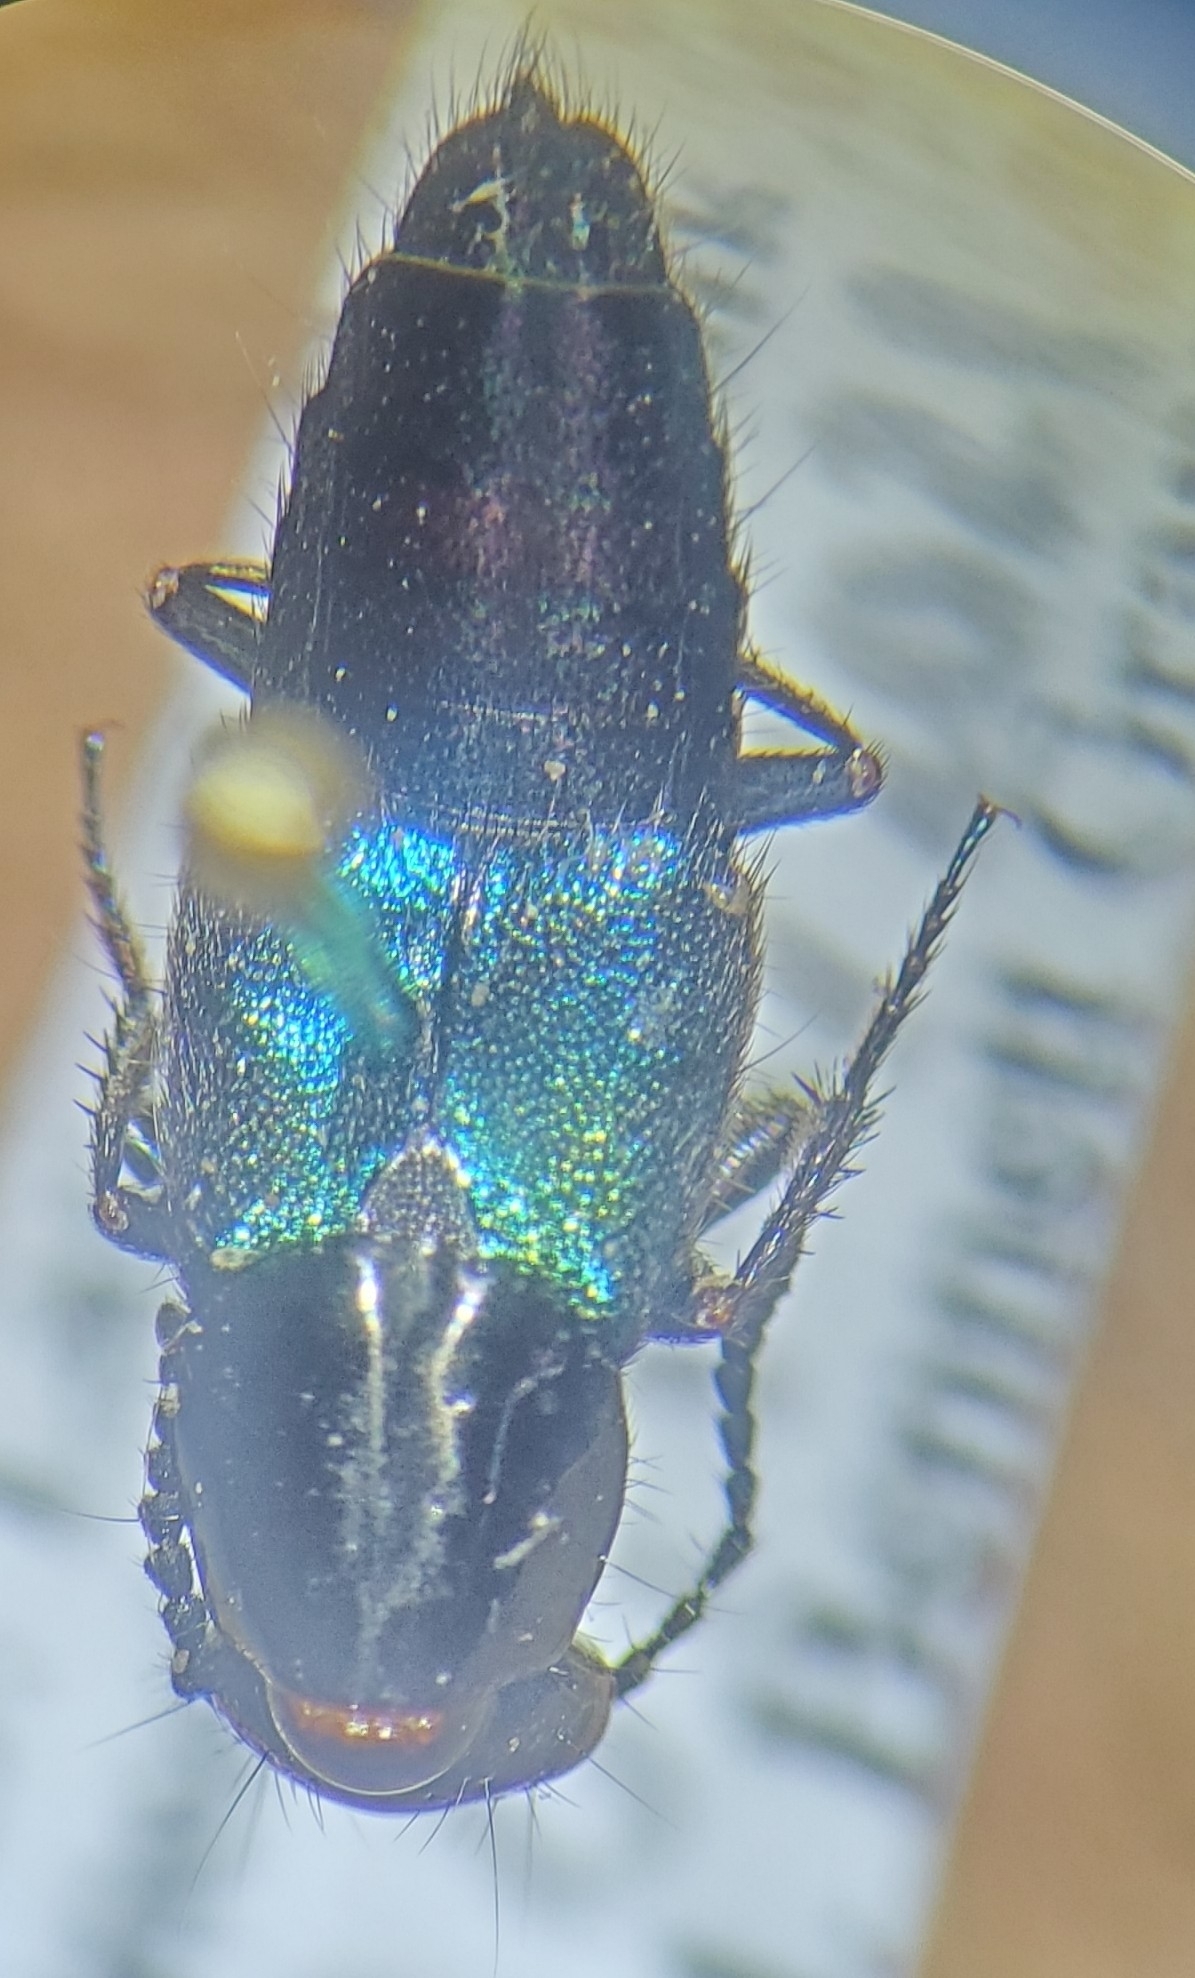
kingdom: Animalia
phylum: Arthropoda
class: Insecta
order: Coleoptera
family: Staphylinidae
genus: Philonthus
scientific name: Philonthus caeruleipennis
